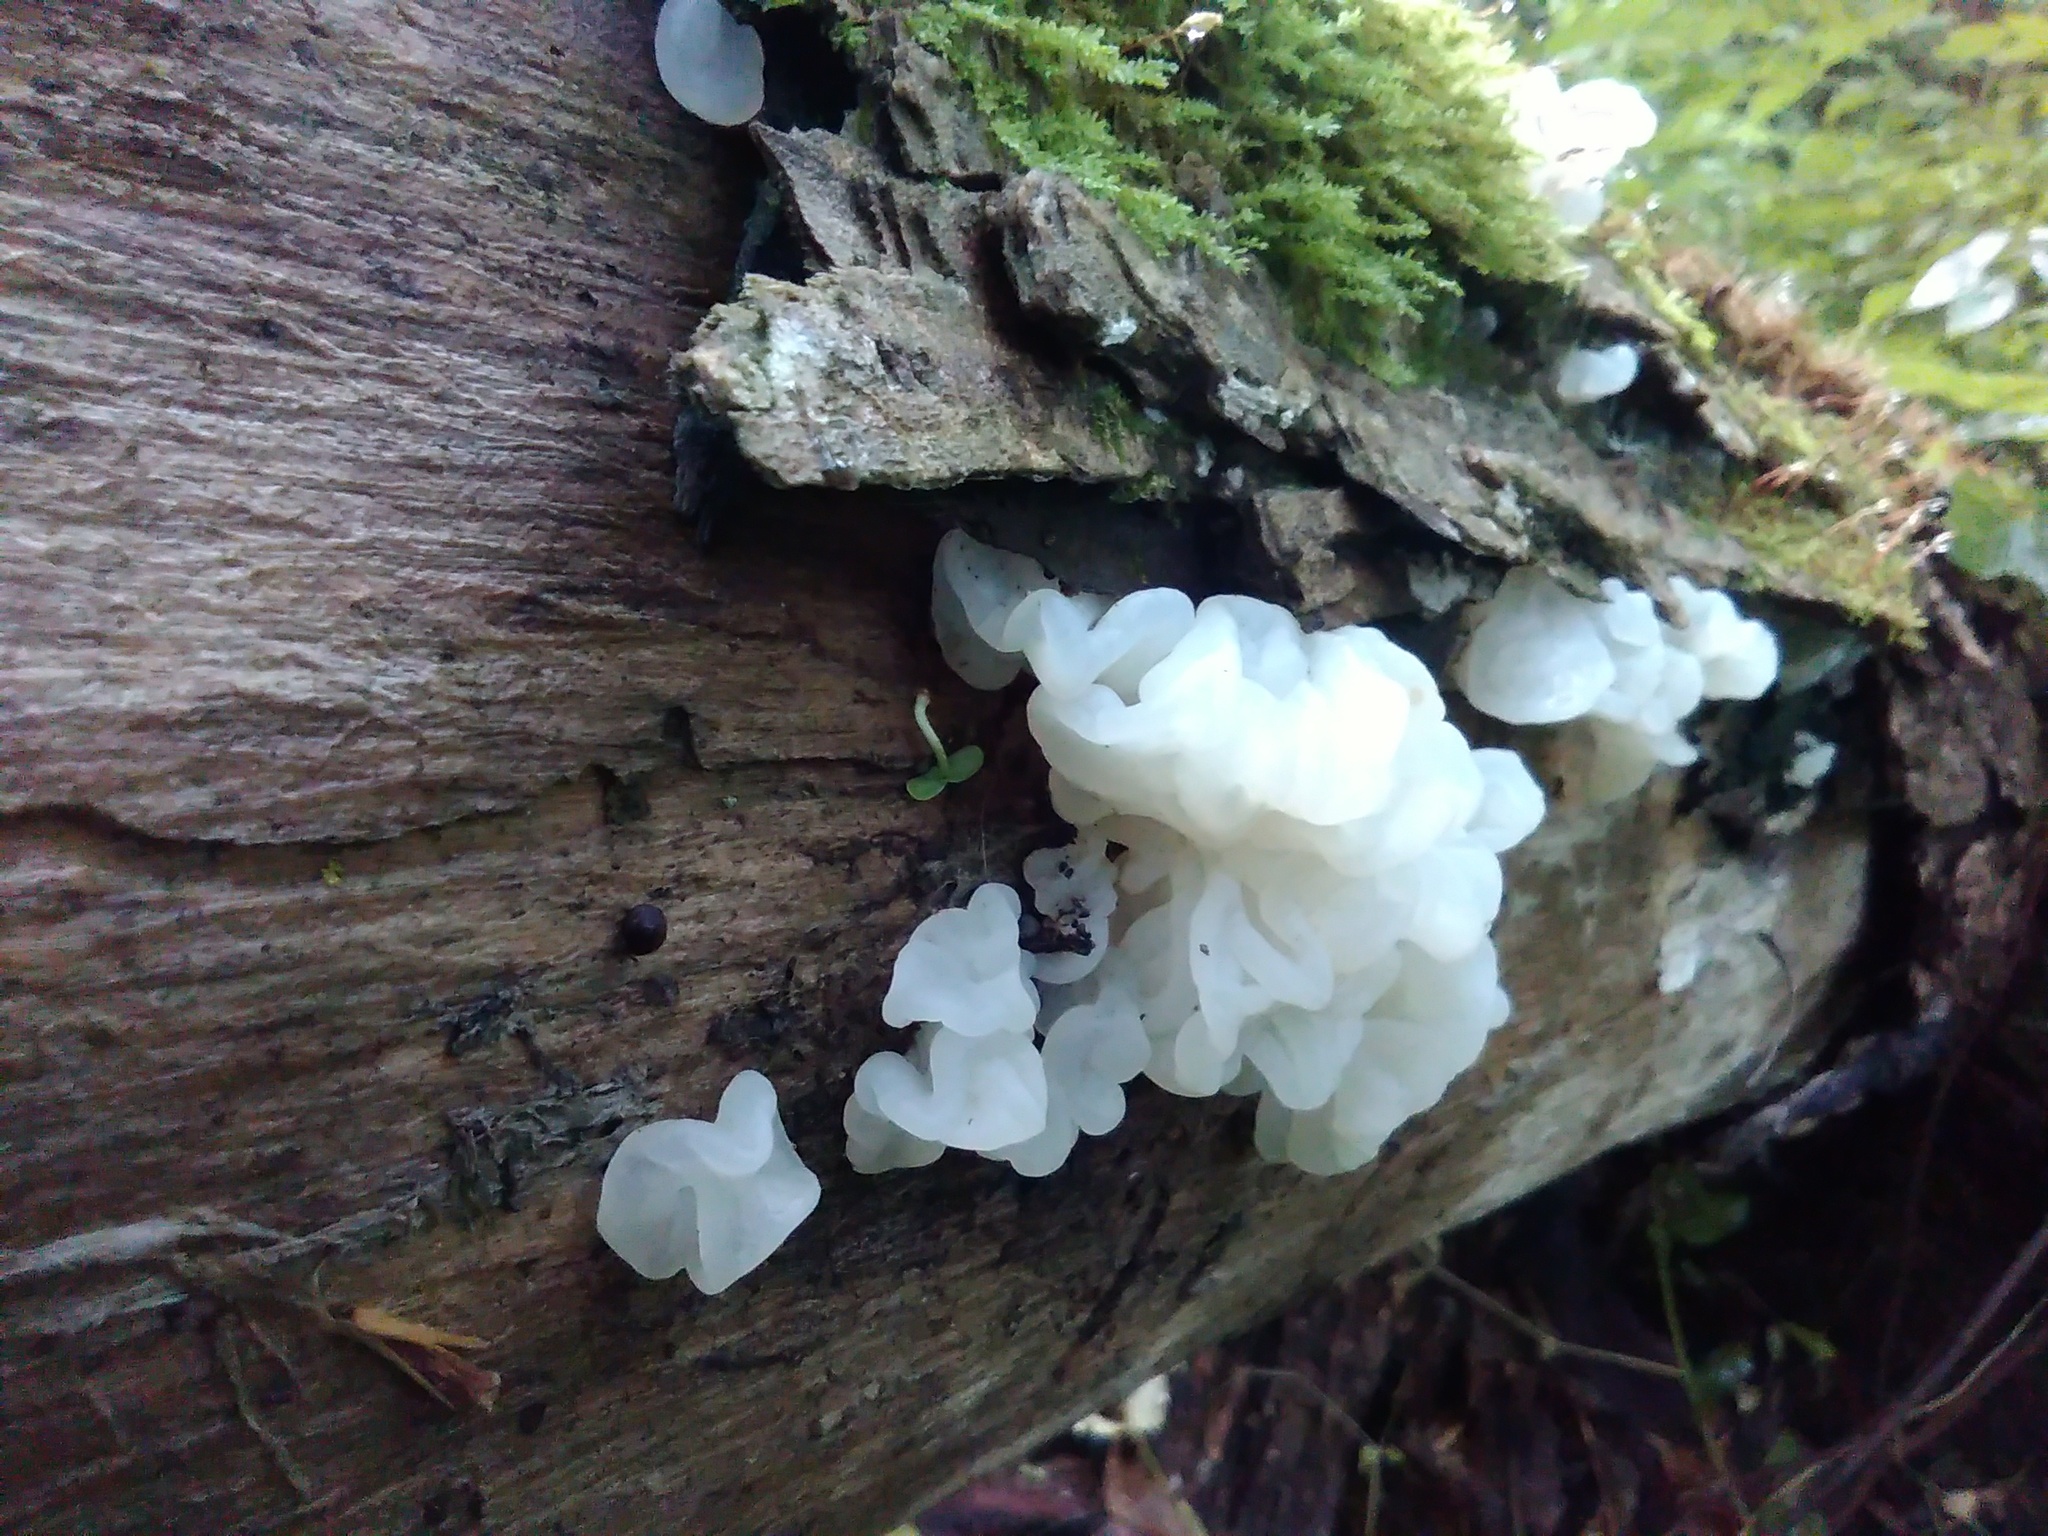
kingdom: Fungi
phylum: Basidiomycota
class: Agaricomycetes
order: Auriculariales
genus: Ductifera
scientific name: Ductifera pululahuana
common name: White jelly fungus
